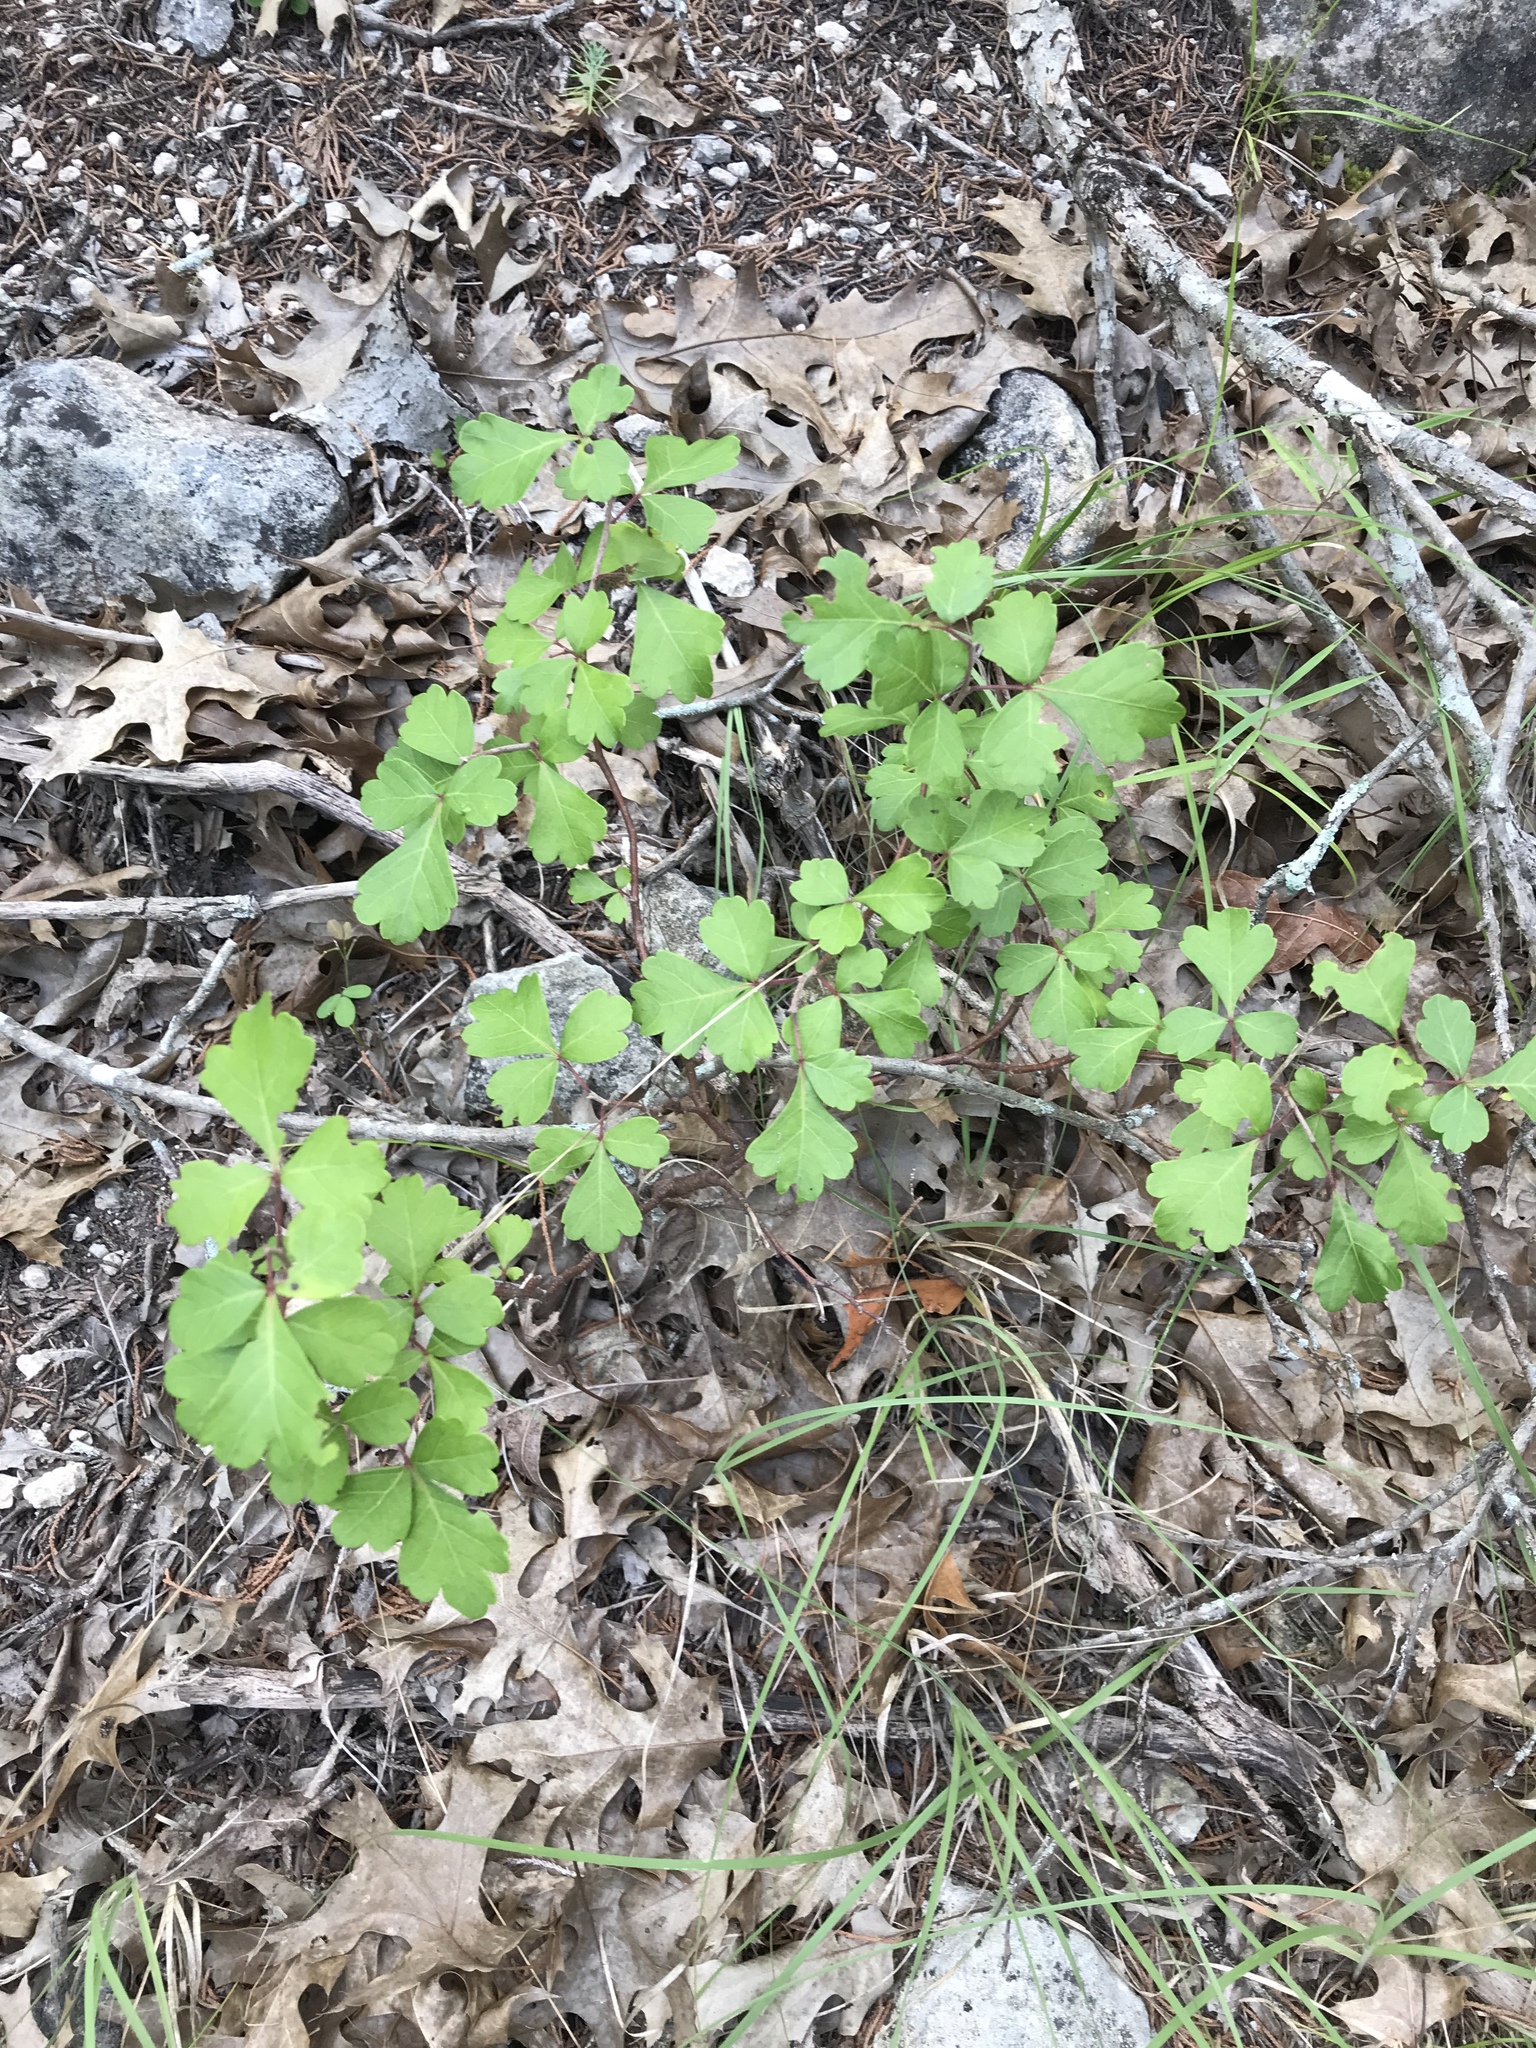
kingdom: Plantae
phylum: Tracheophyta
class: Magnoliopsida
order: Sapindales
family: Anacardiaceae
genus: Rhus
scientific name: Rhus aromatica
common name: Aromatic sumac
